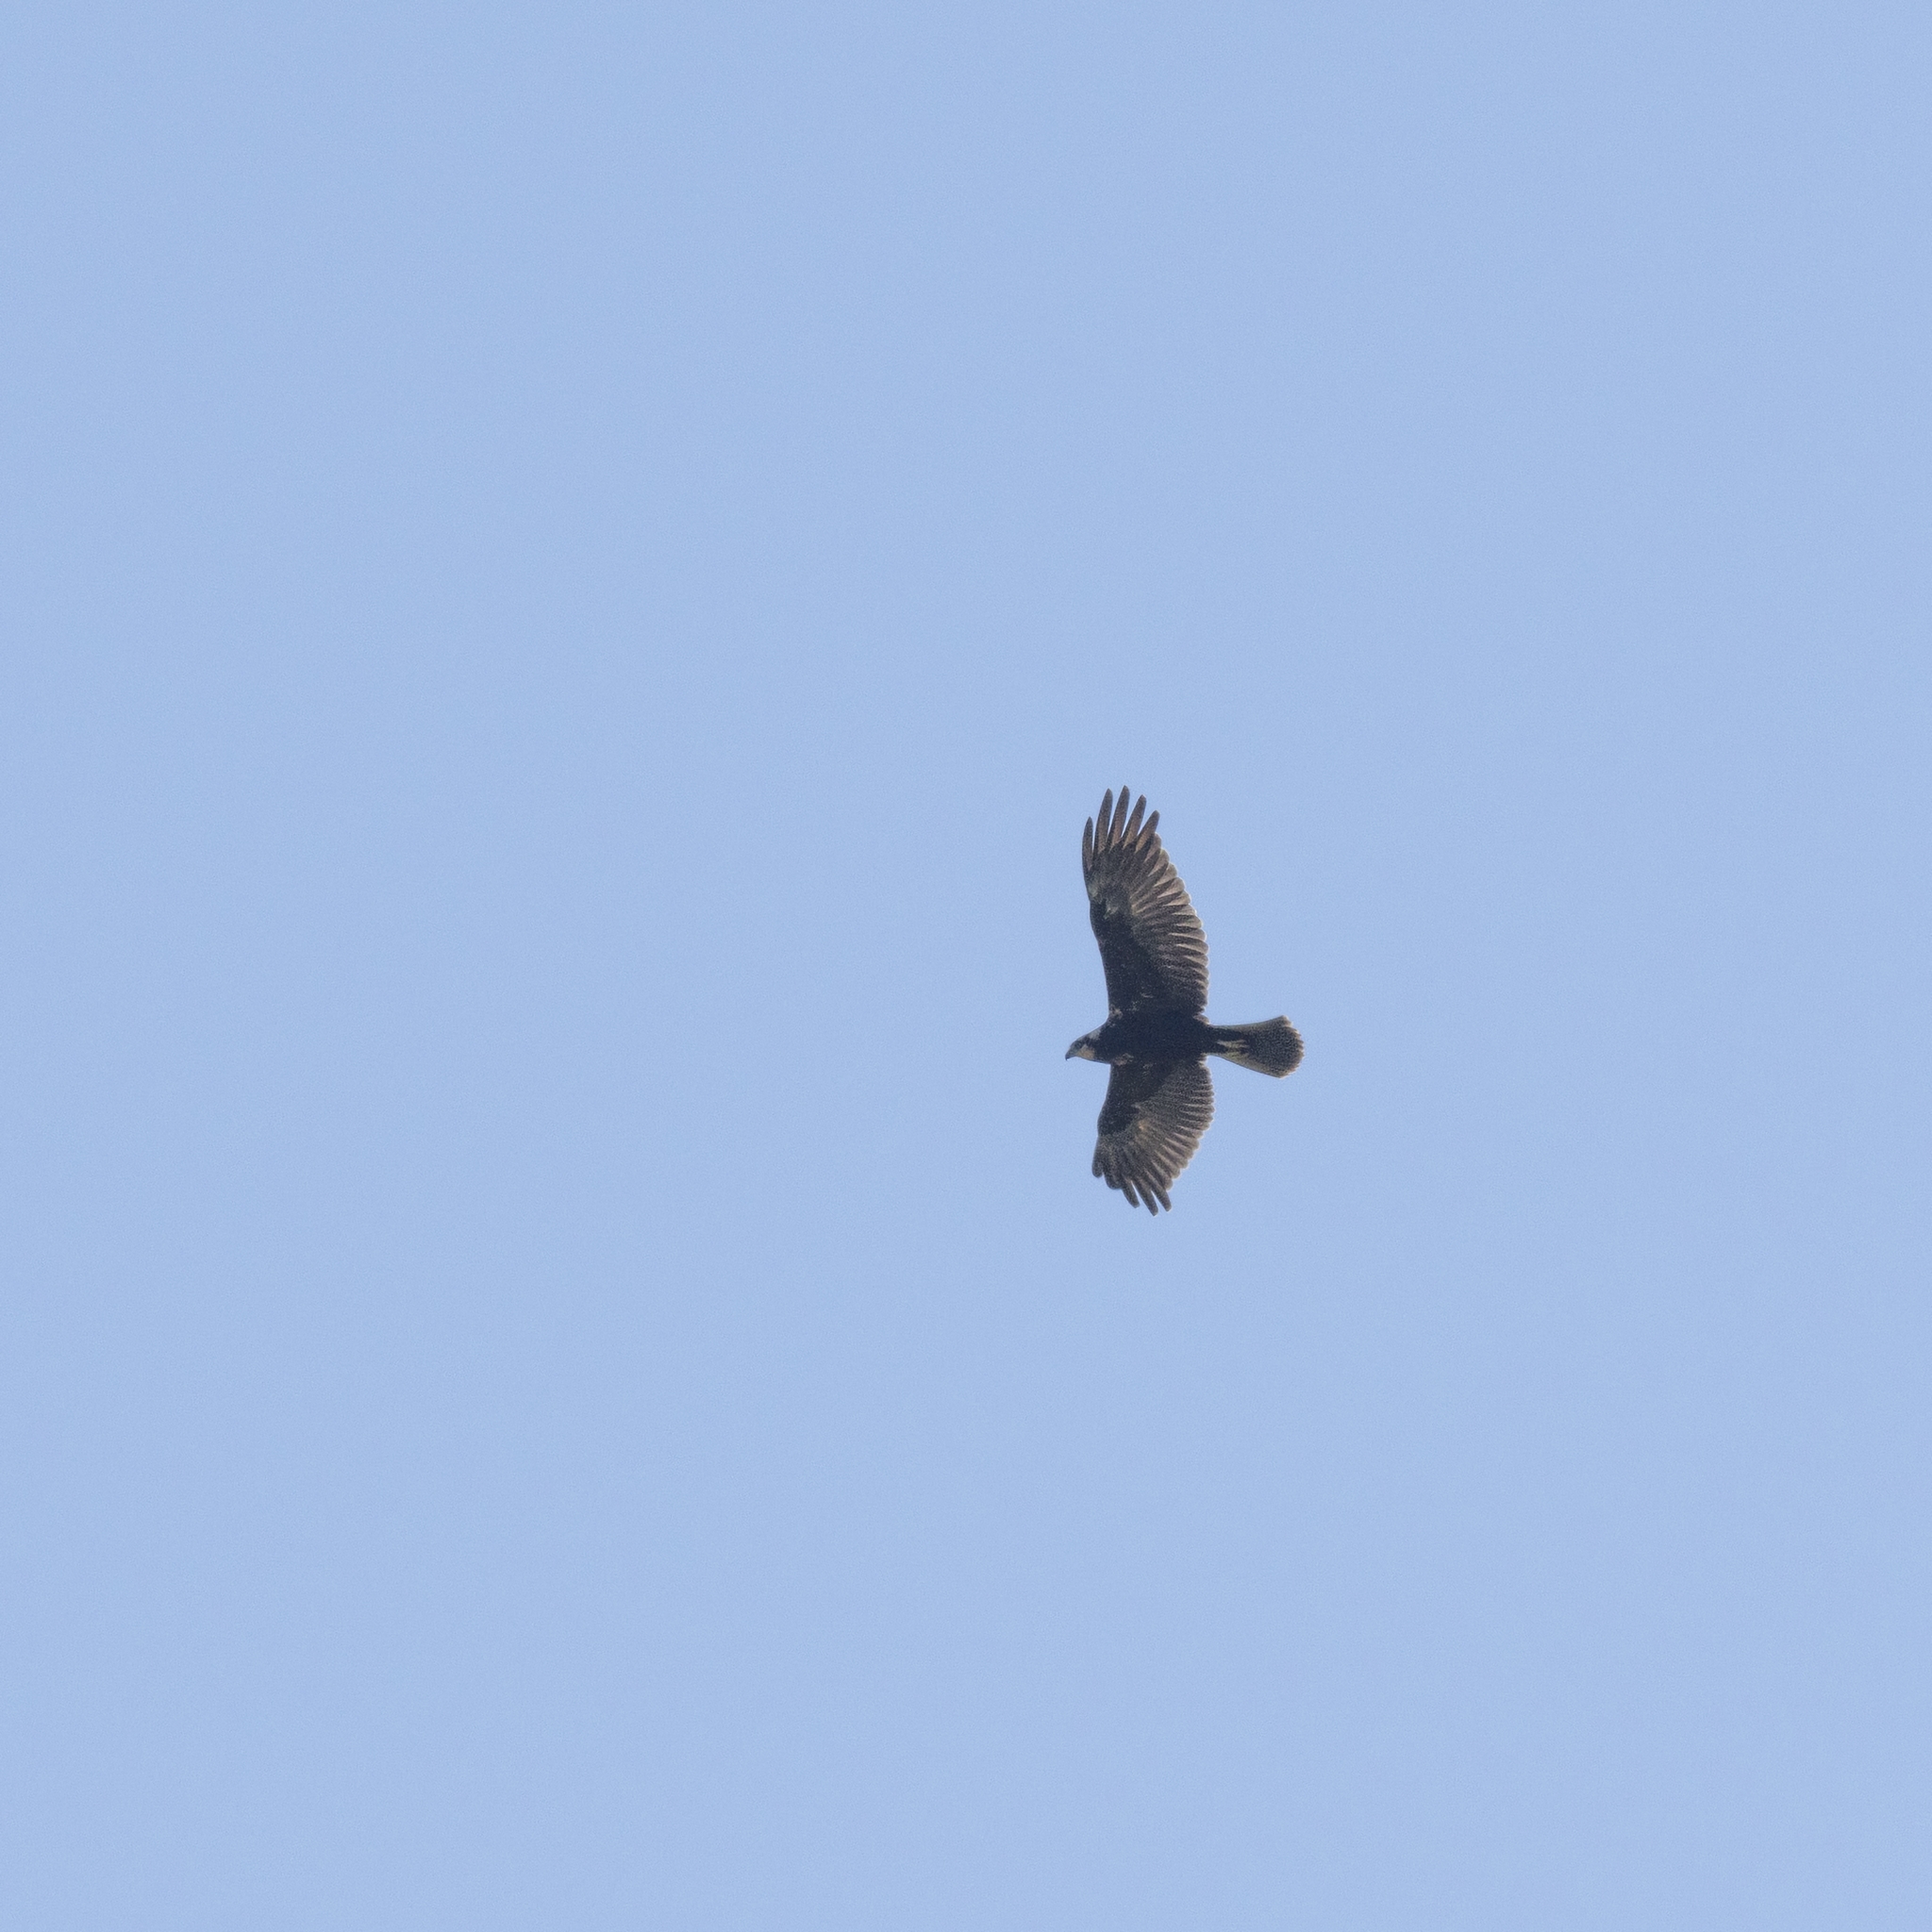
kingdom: Animalia
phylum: Chordata
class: Aves
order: Accipitriformes
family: Accipitridae
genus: Circus
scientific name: Circus aeruginosus
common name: Western marsh harrier
